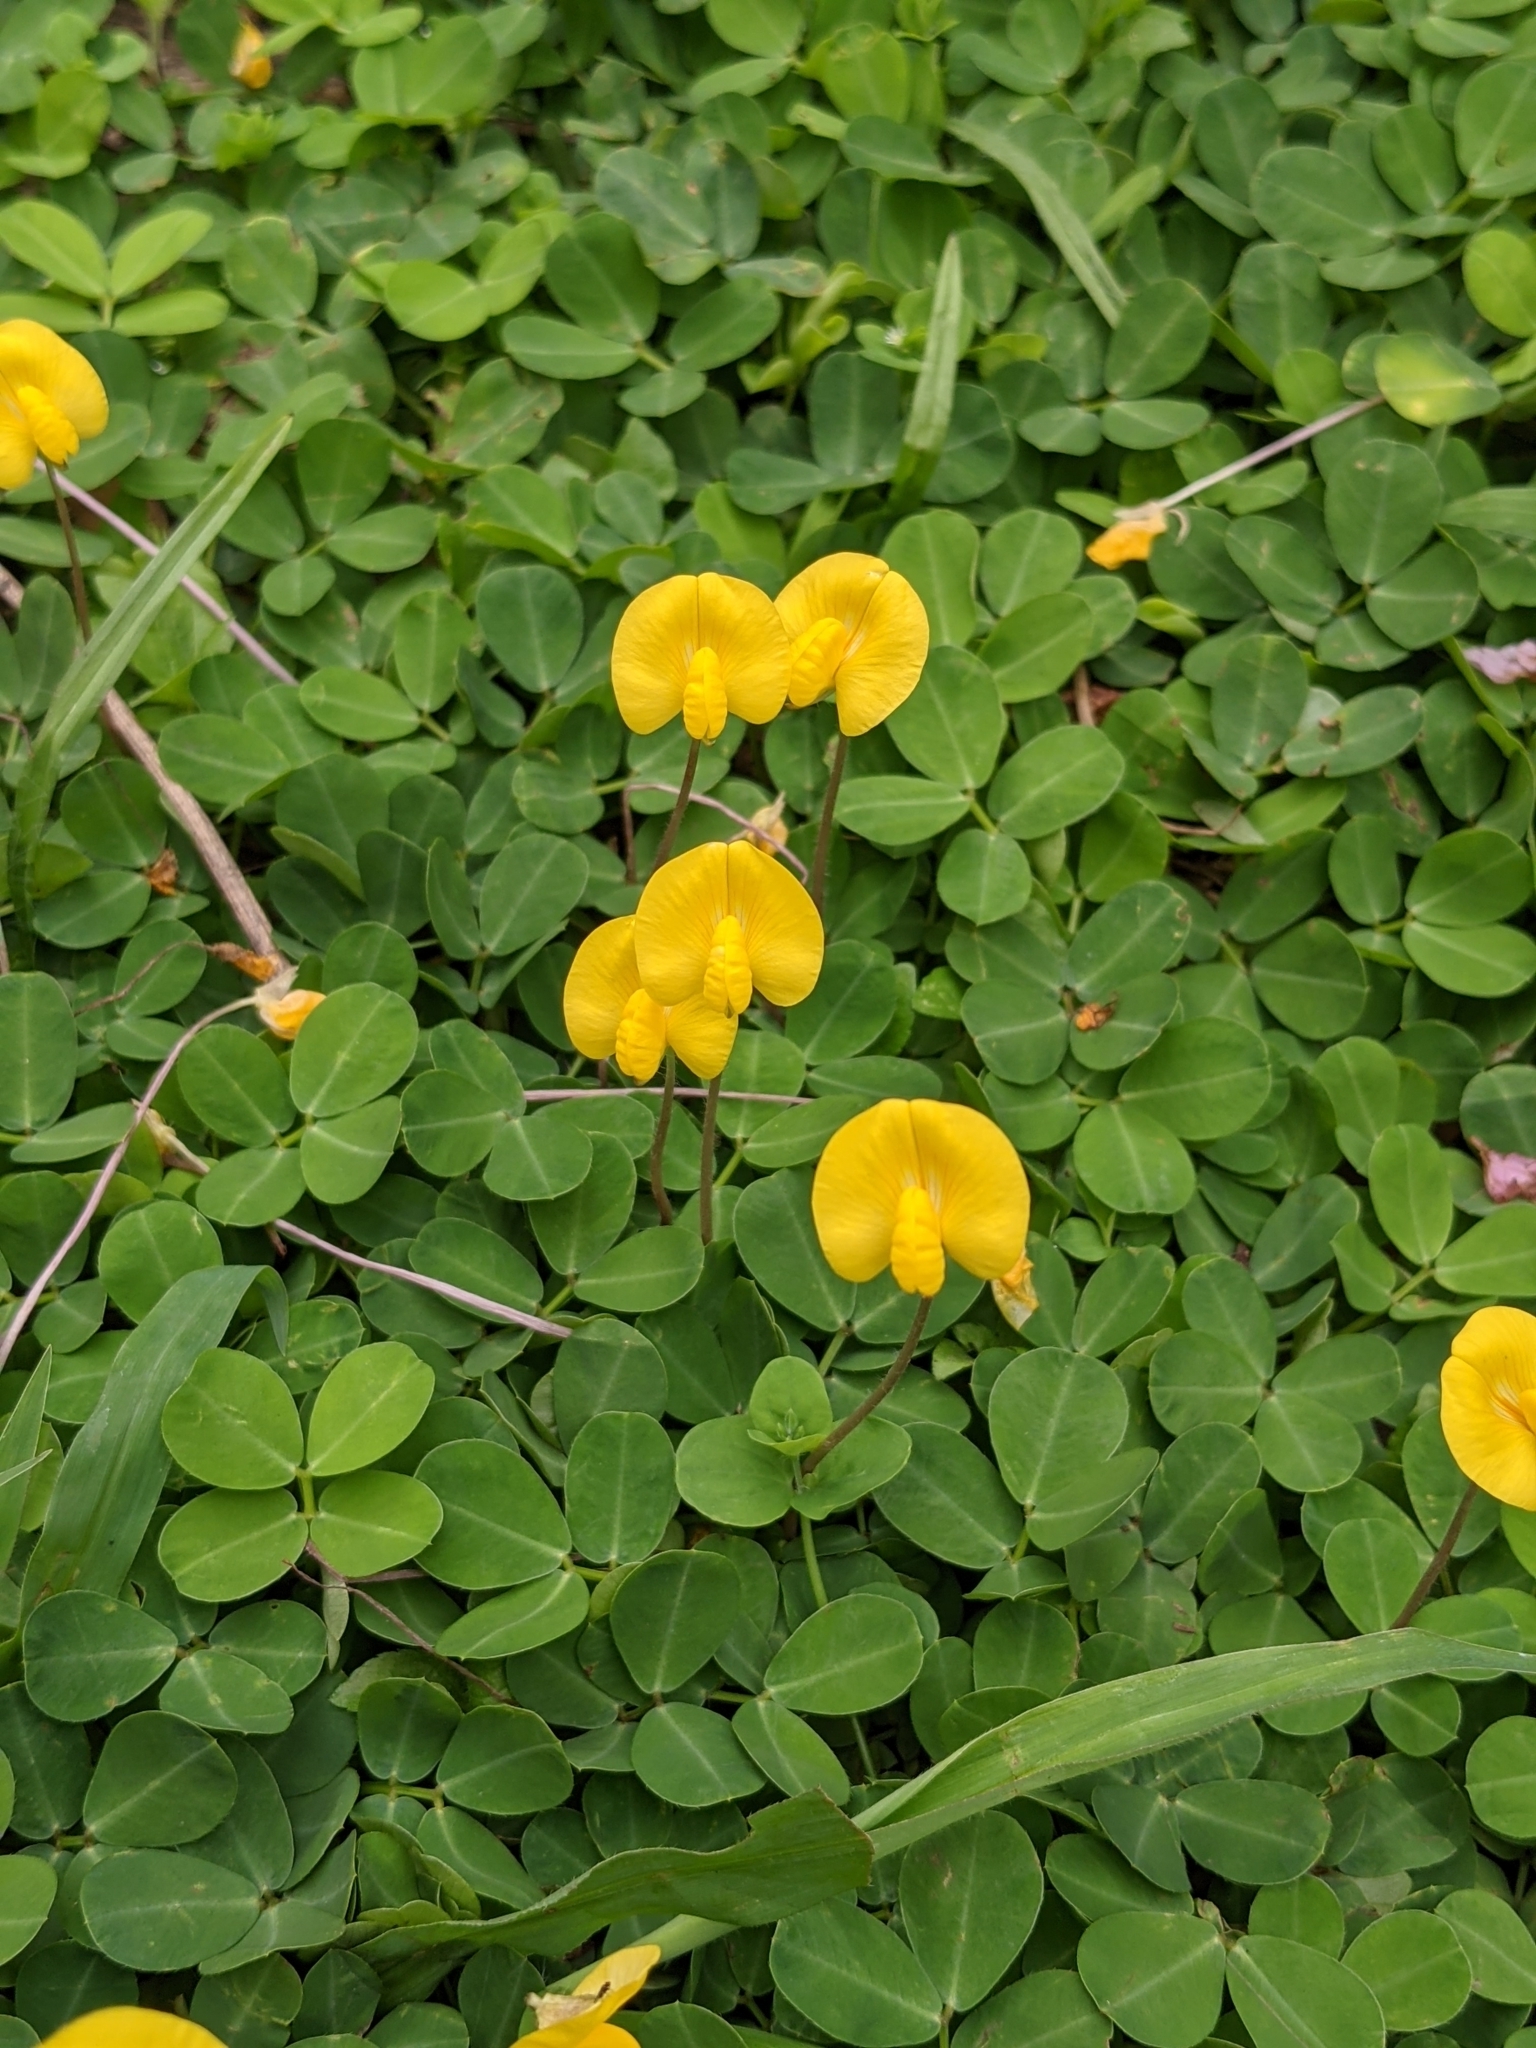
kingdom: Plantae
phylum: Tracheophyta
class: Magnoliopsida
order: Fabales
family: Fabaceae
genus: Arachis
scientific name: Arachis pintoi
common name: Pinto peanut
